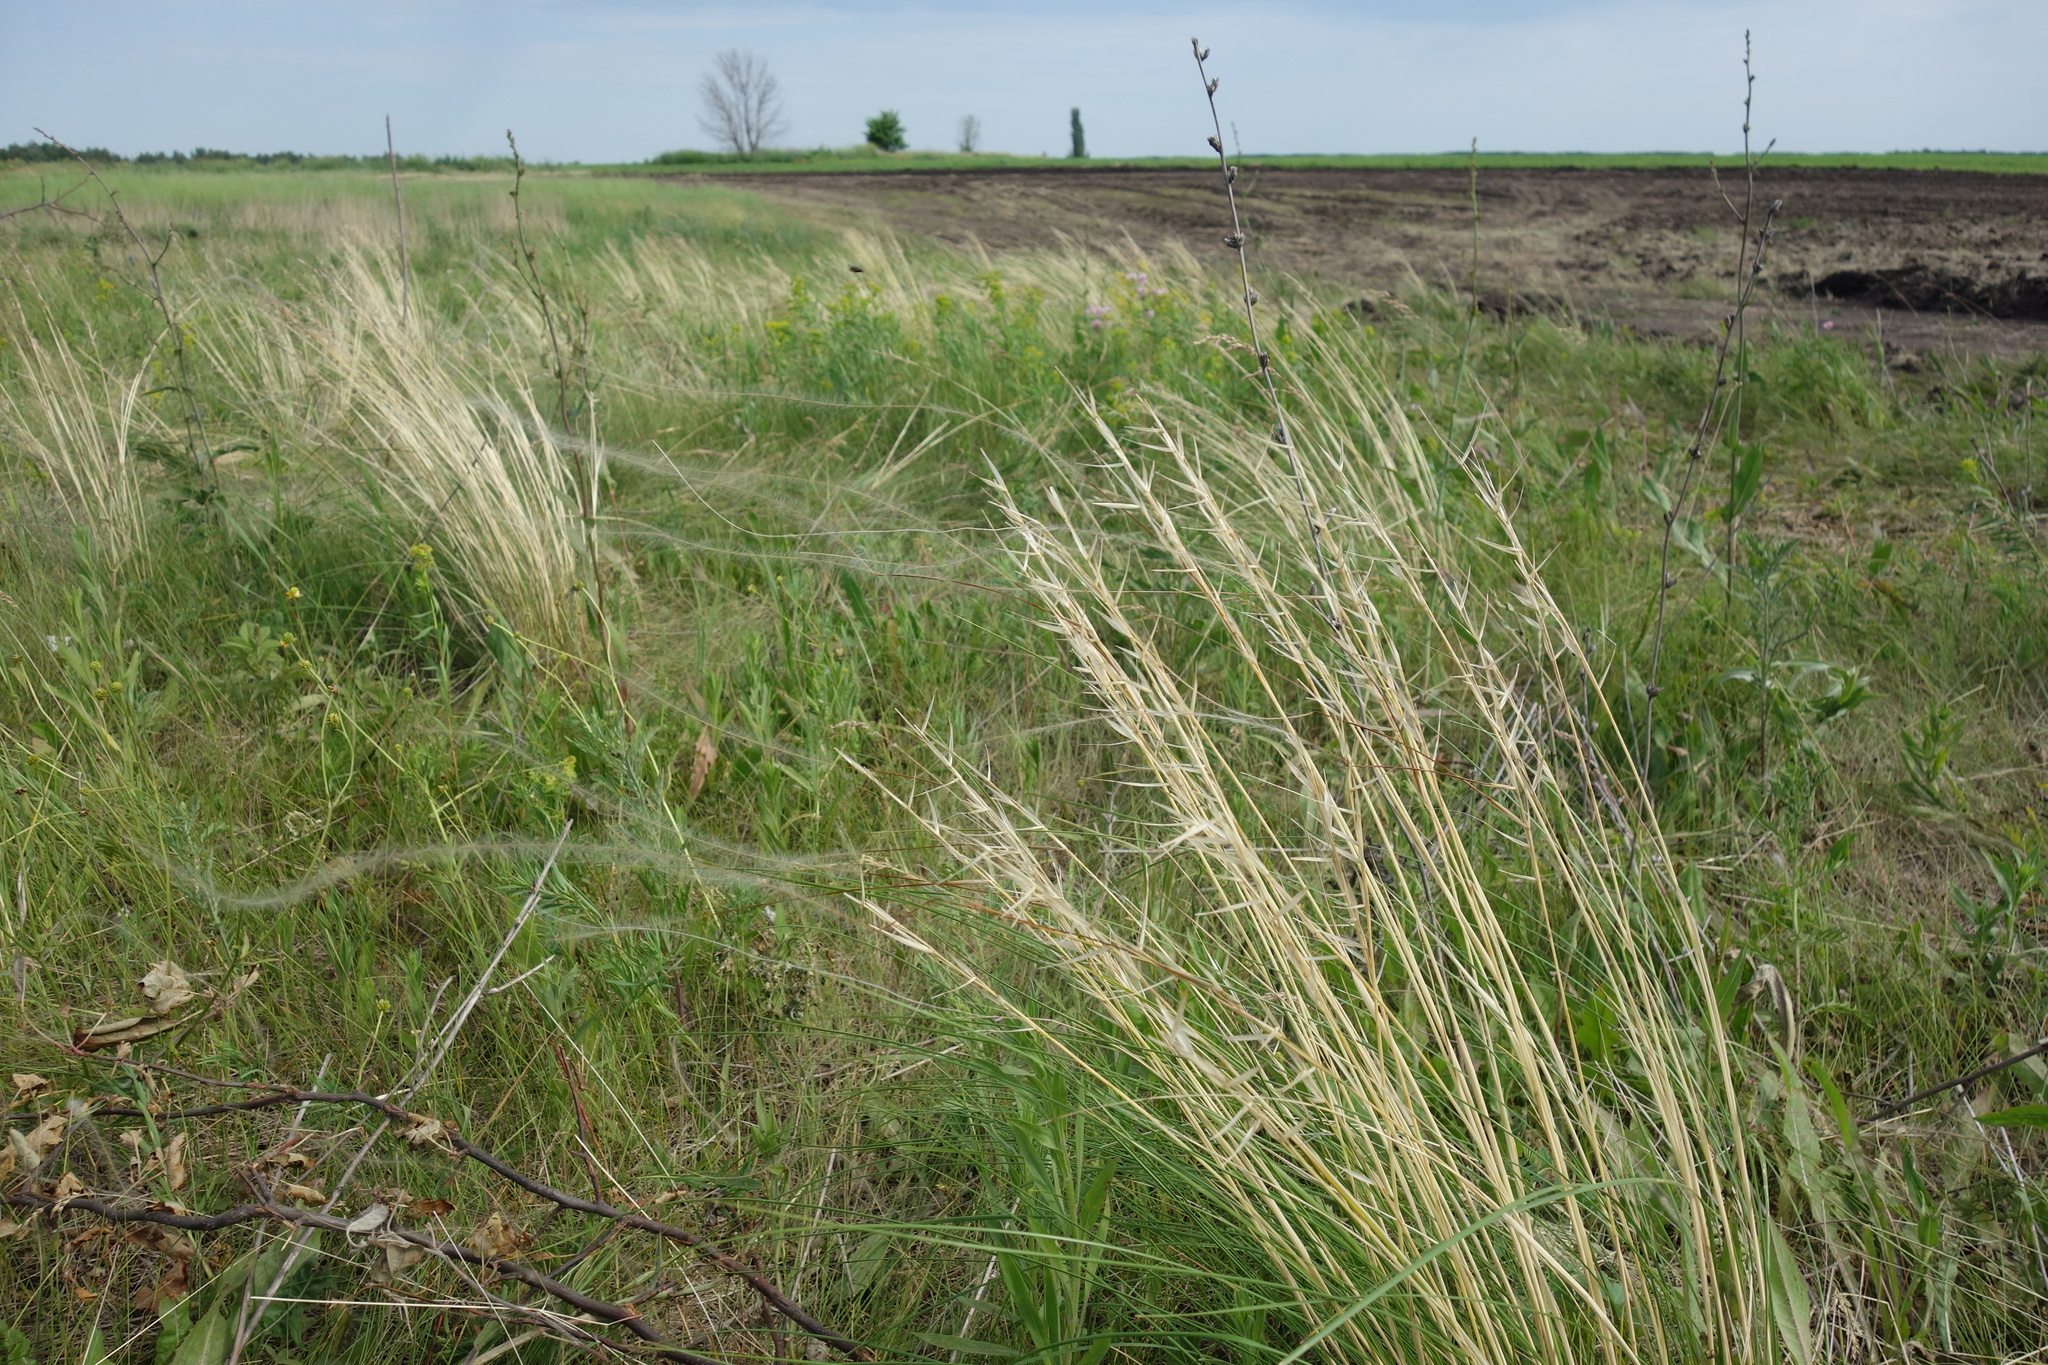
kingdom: Plantae
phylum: Tracheophyta
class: Liliopsida
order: Poales
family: Poaceae
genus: Stipa
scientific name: Stipa pennata
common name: European feather grass
